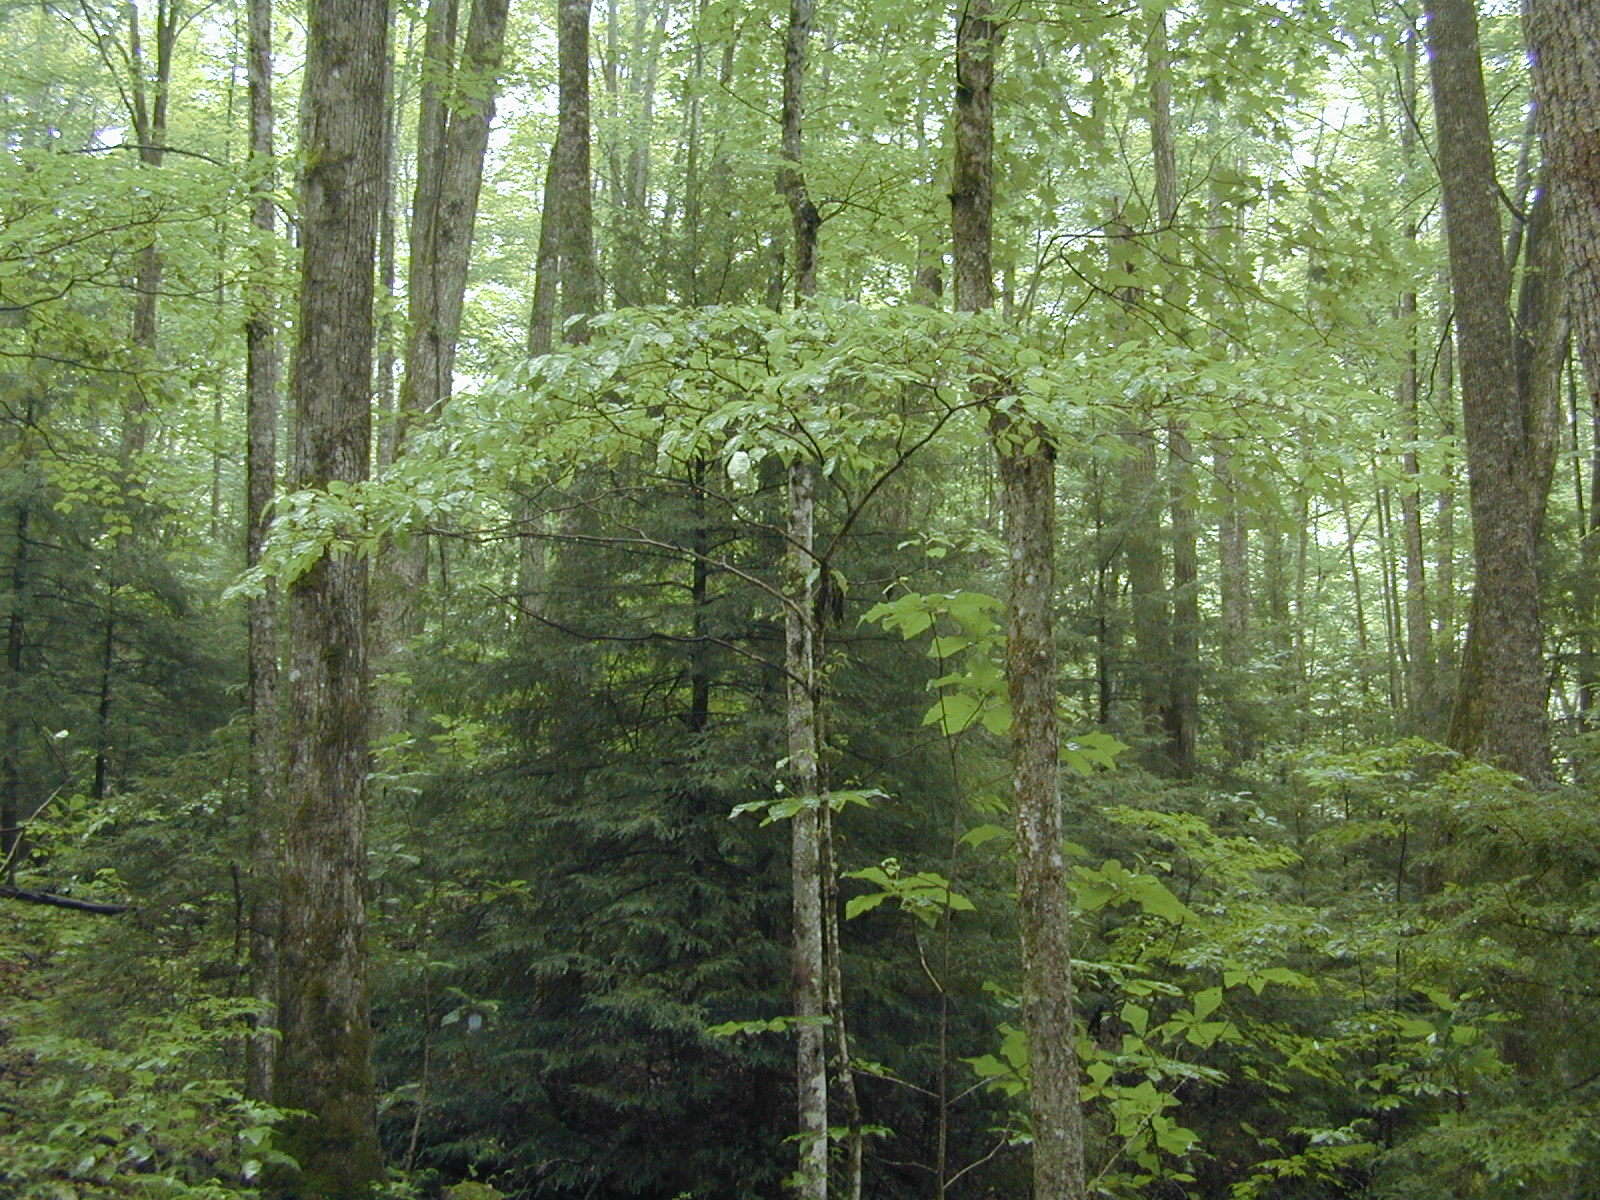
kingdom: Plantae
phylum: Tracheophyta
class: Magnoliopsida
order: Cornales
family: Cornaceae
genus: Cornus
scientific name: Cornus florida
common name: Flowering dogwood
